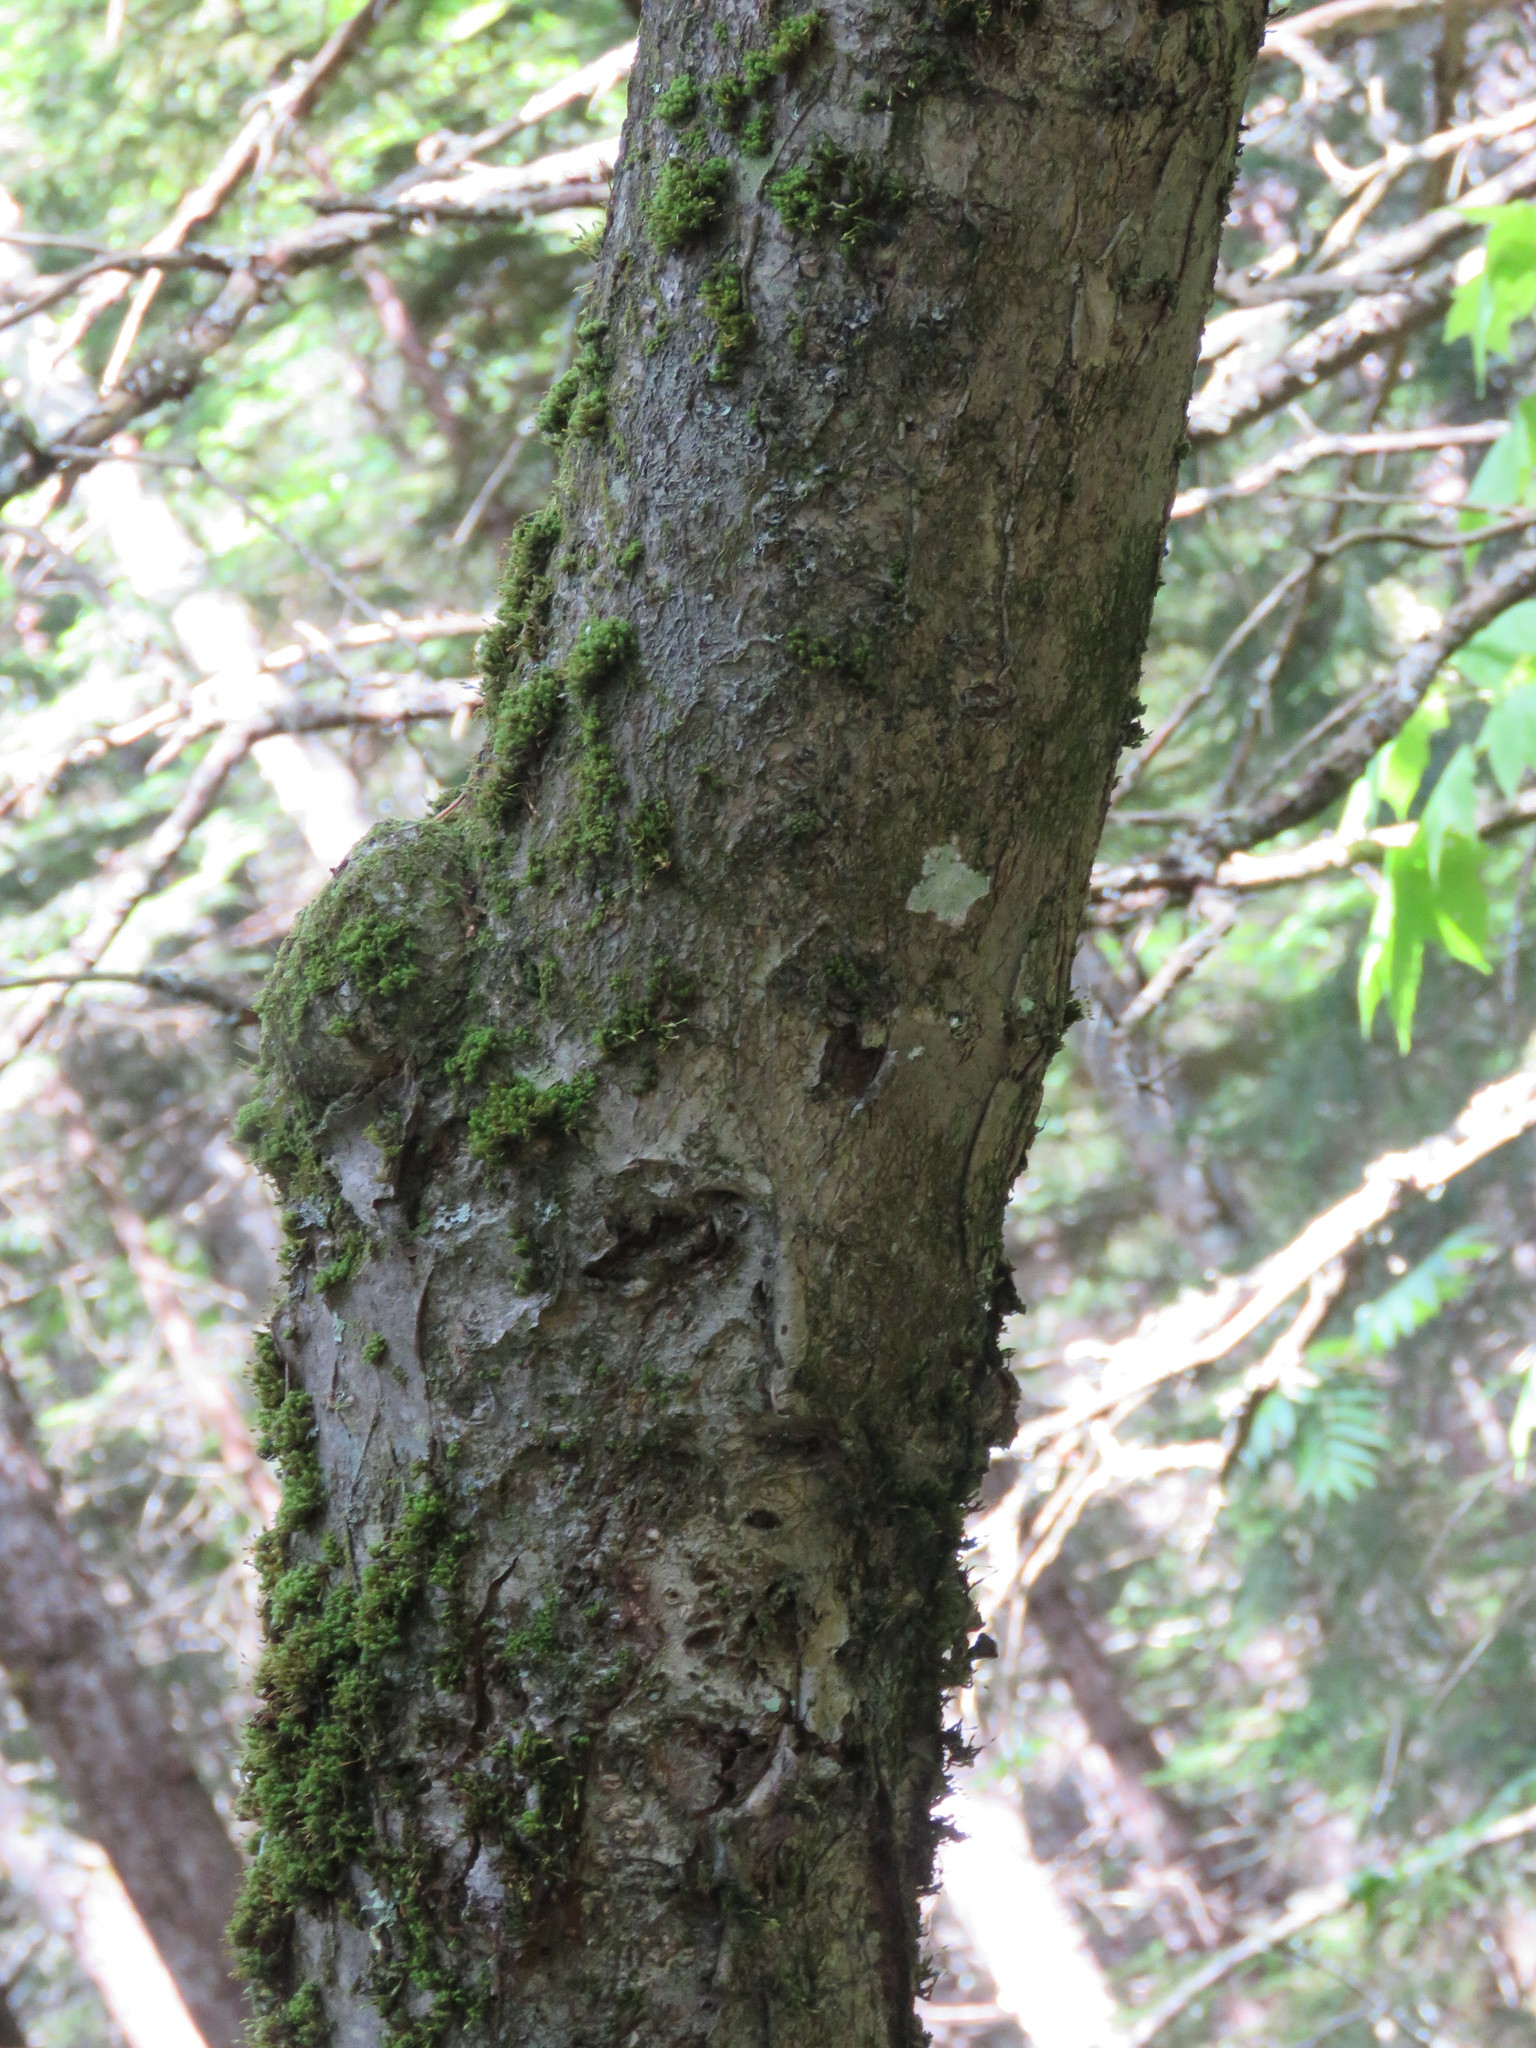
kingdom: Plantae
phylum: Tracheophyta
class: Magnoliopsida
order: Rosales
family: Rosaceae
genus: Sorbus
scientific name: Sorbus americana
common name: American mountain-ash
